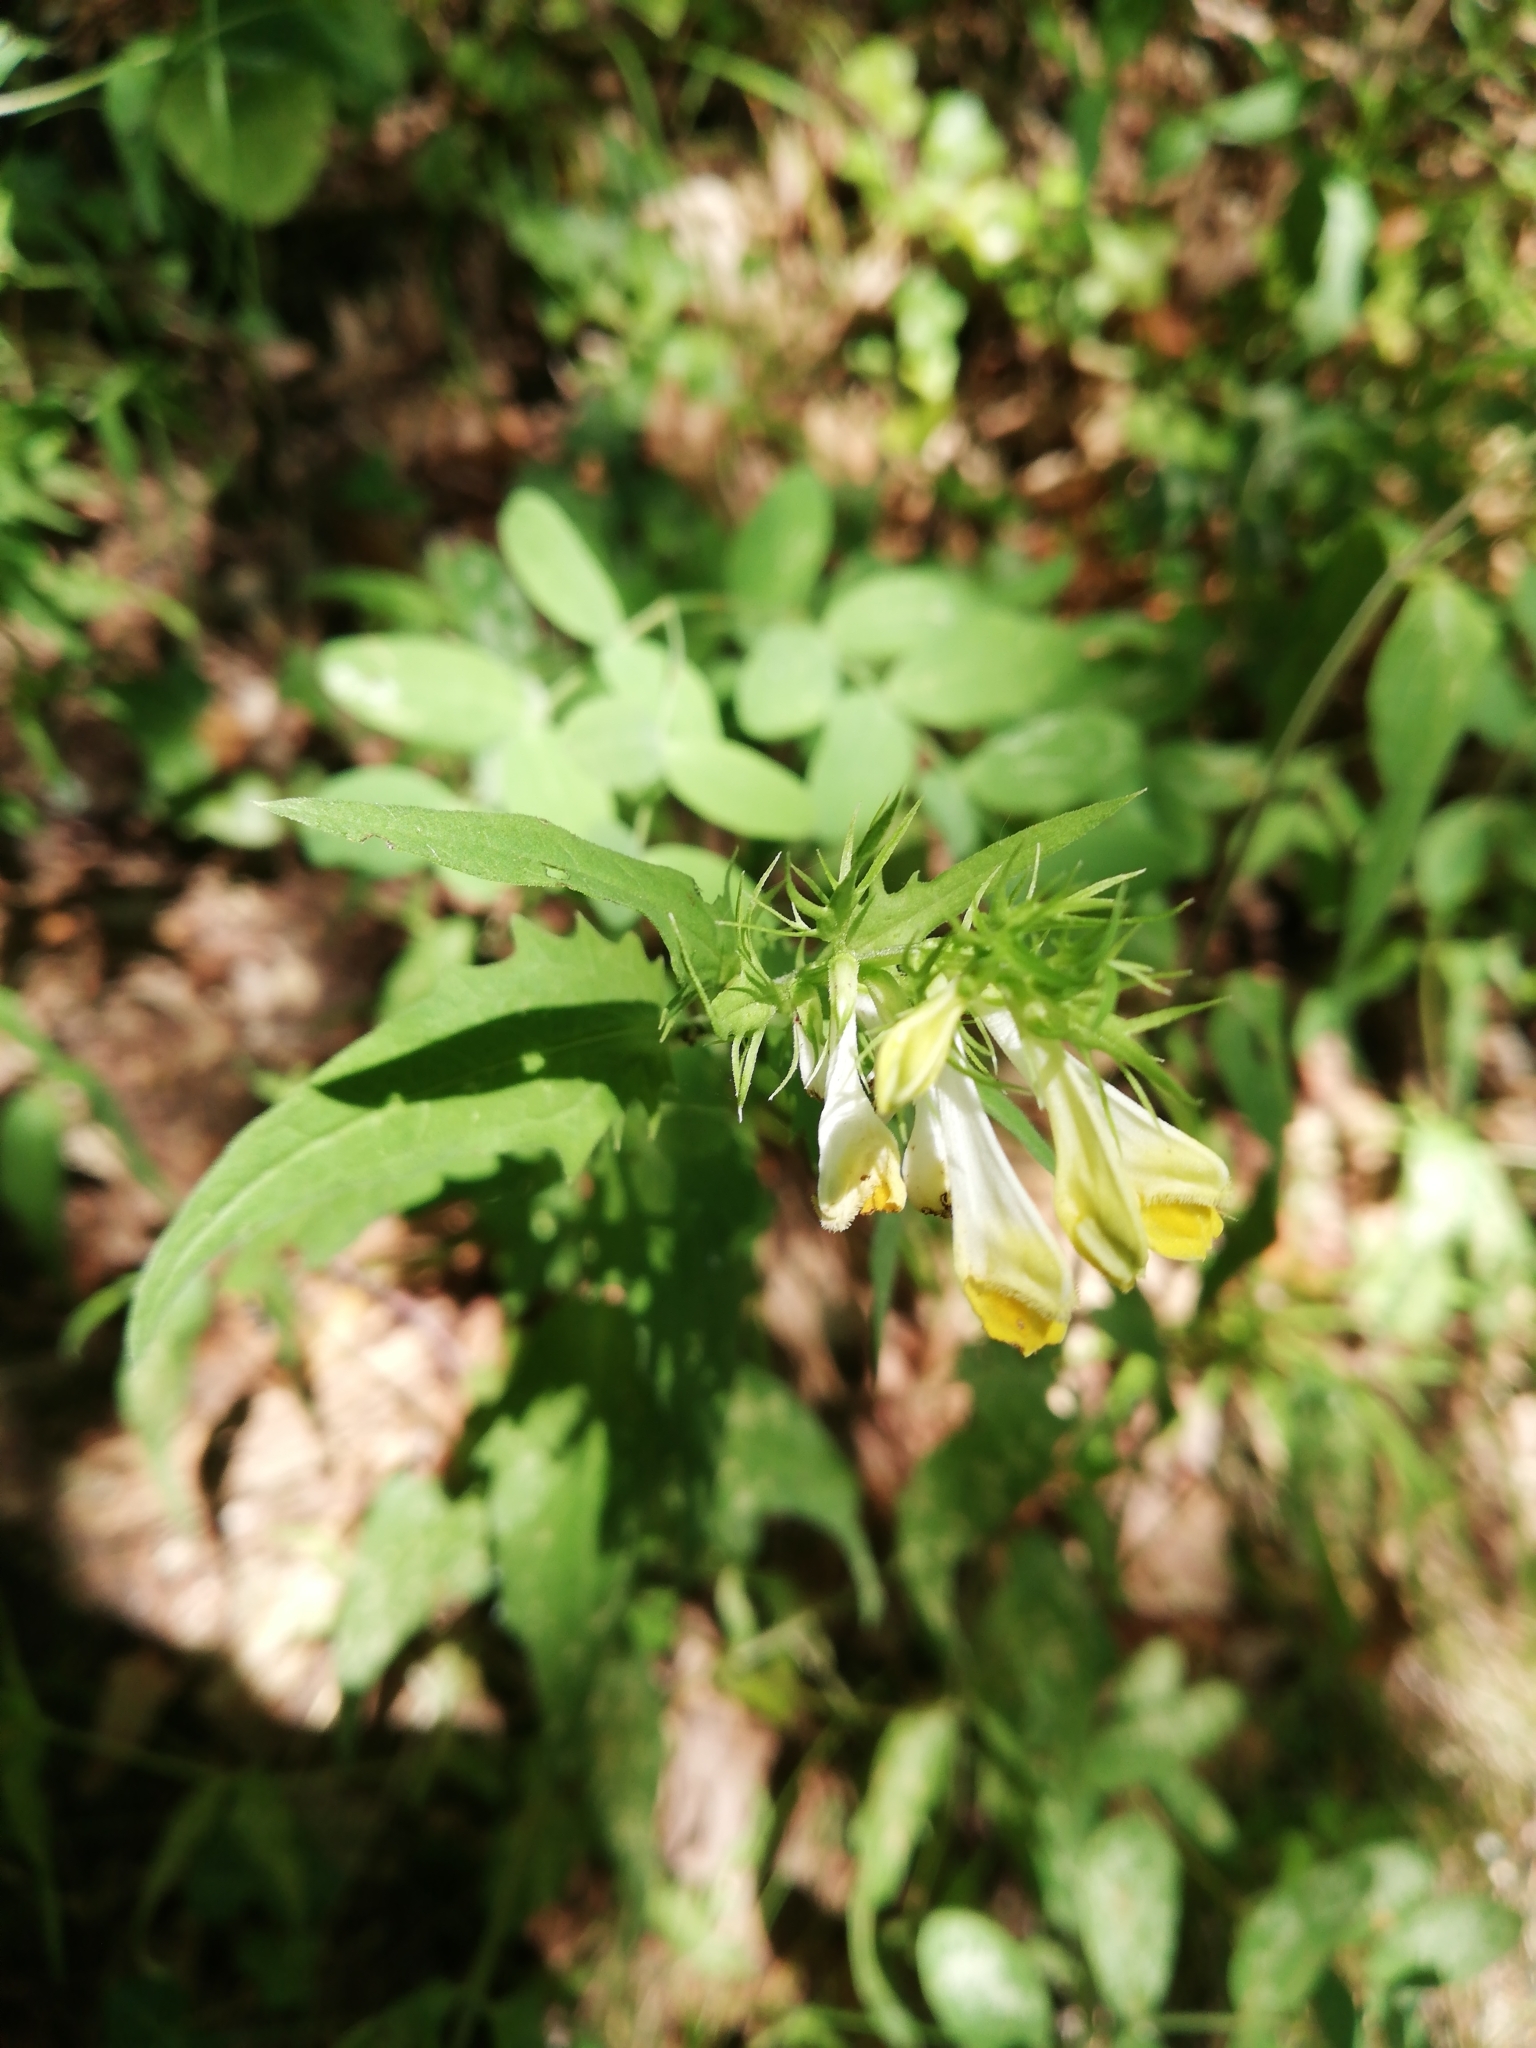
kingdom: Plantae
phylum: Tracheophyta
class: Magnoliopsida
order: Lamiales
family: Orobanchaceae
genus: Melampyrum
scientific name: Melampyrum pratense
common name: Common cow-wheat
